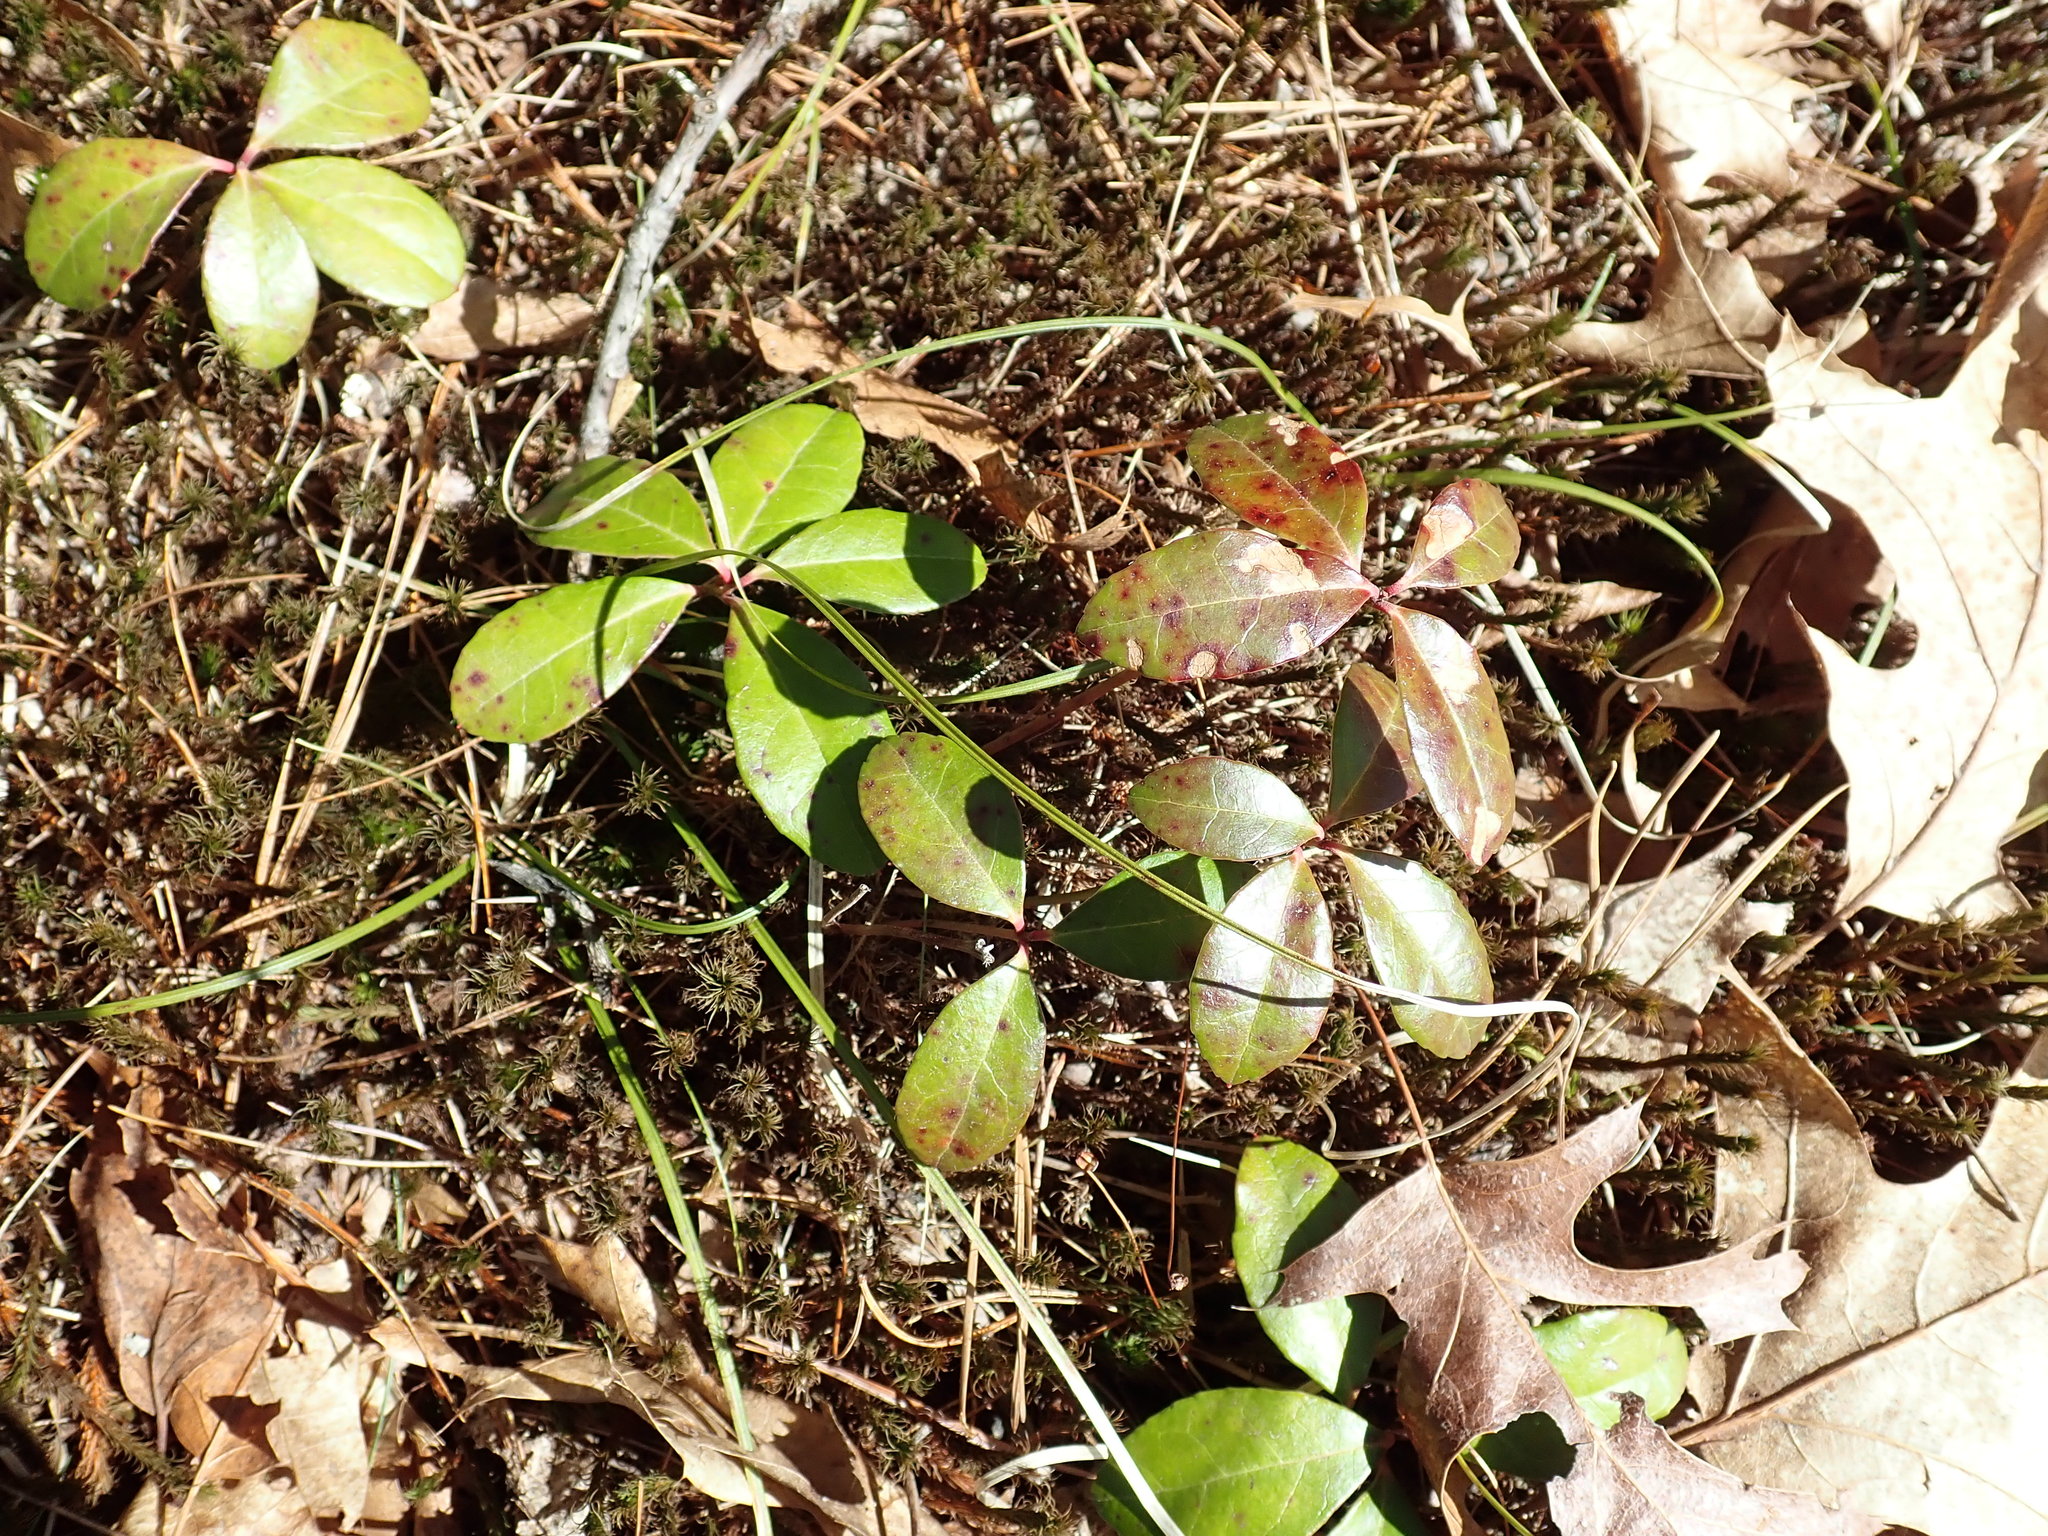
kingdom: Plantae
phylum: Tracheophyta
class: Magnoliopsida
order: Ericales
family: Ericaceae
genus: Gaultheria
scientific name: Gaultheria procumbens
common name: Checkerberry
